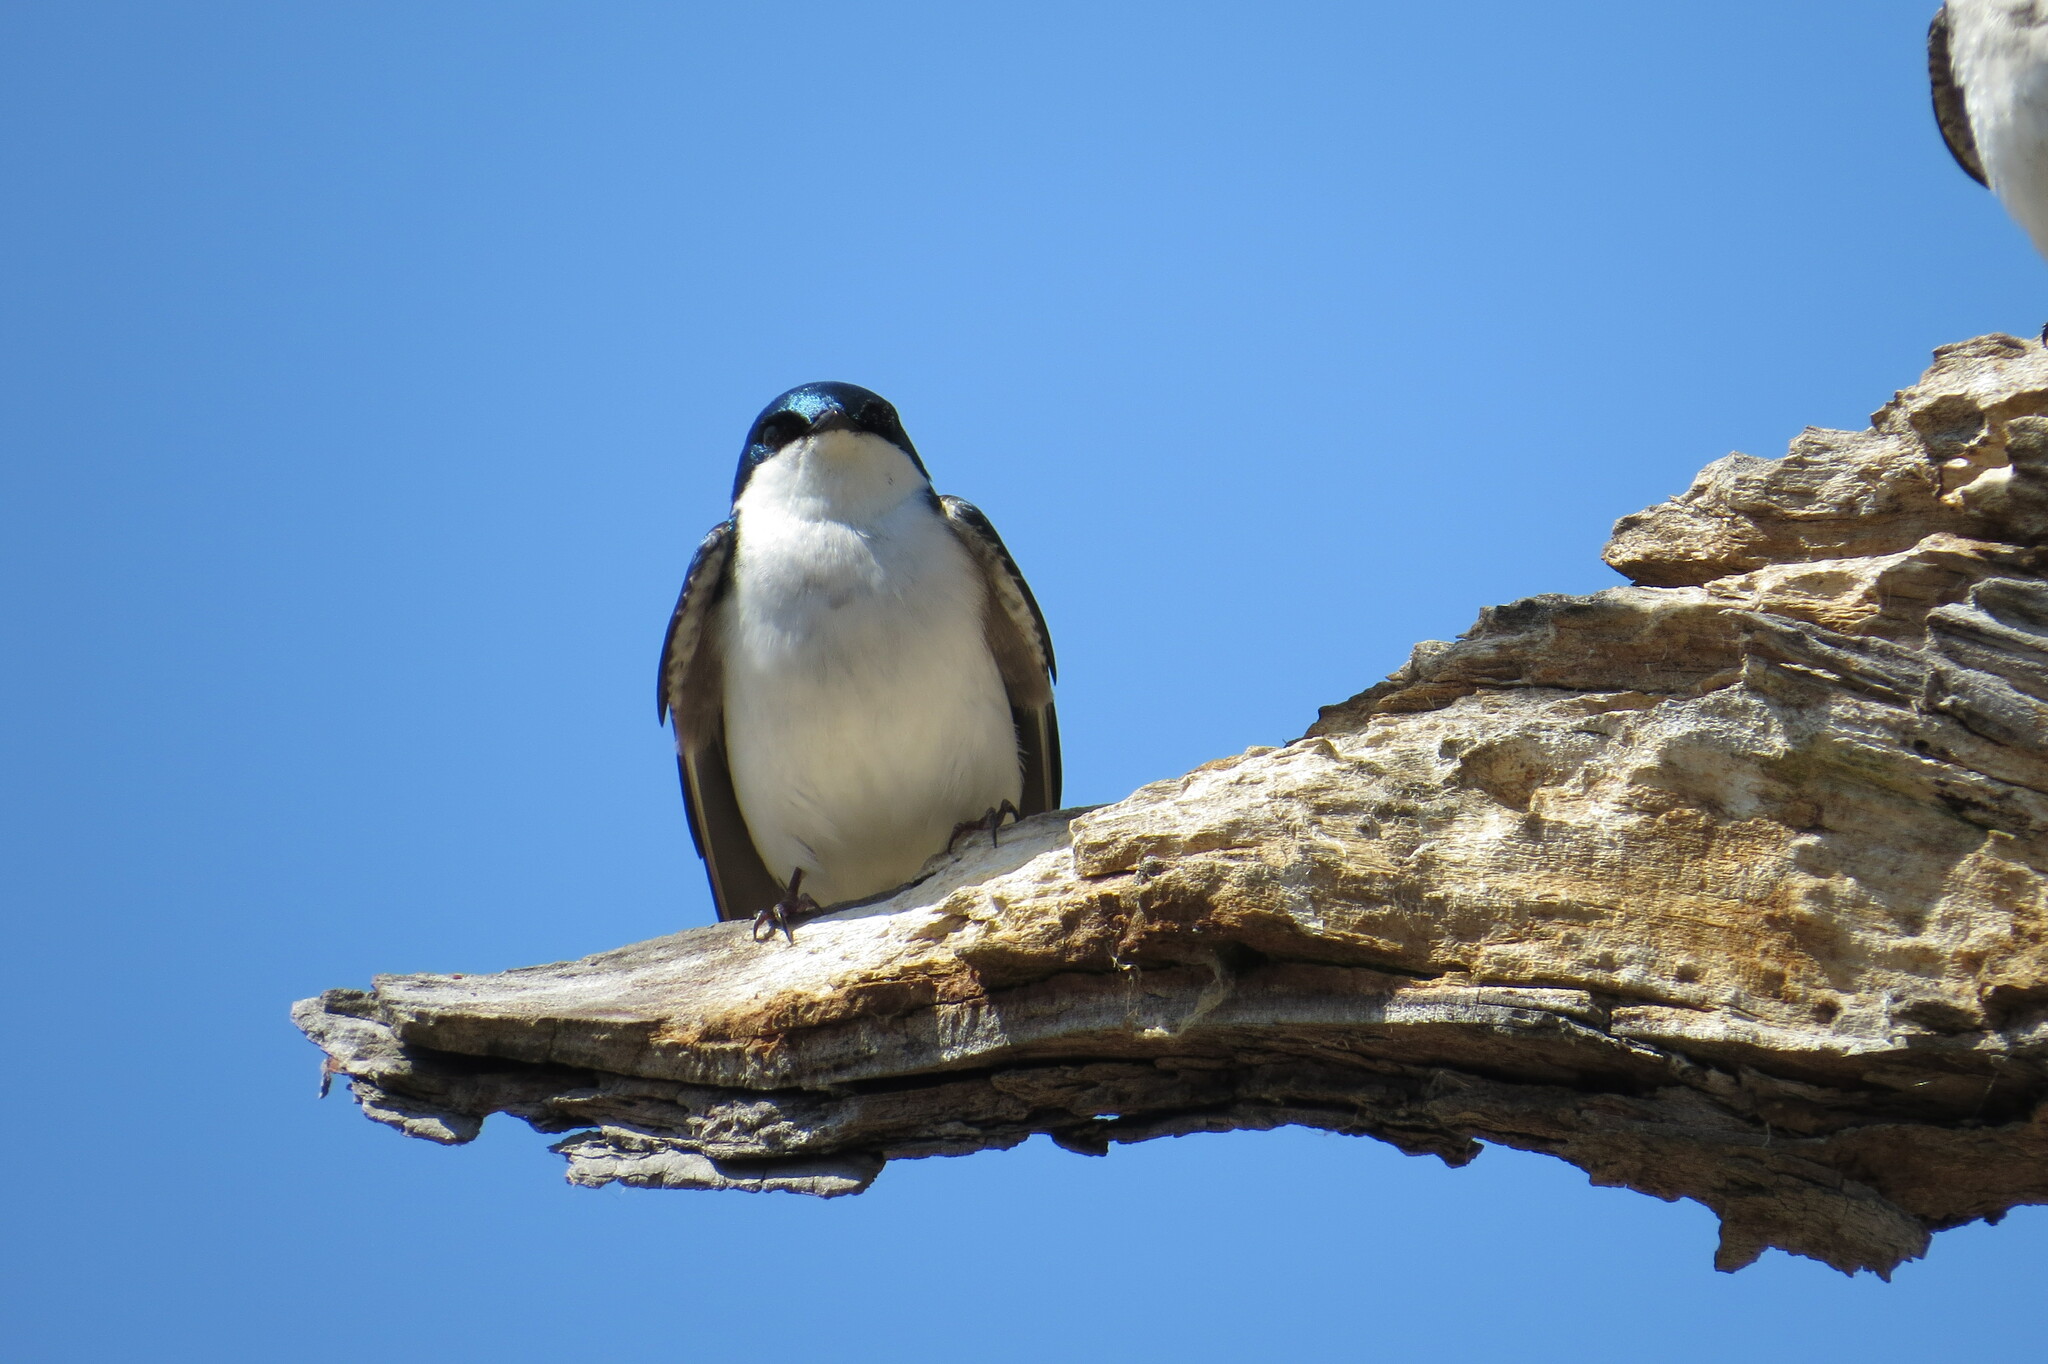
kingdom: Animalia
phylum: Chordata
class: Aves
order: Passeriformes
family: Hirundinidae
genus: Tachycineta
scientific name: Tachycineta bicolor
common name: Tree swallow
